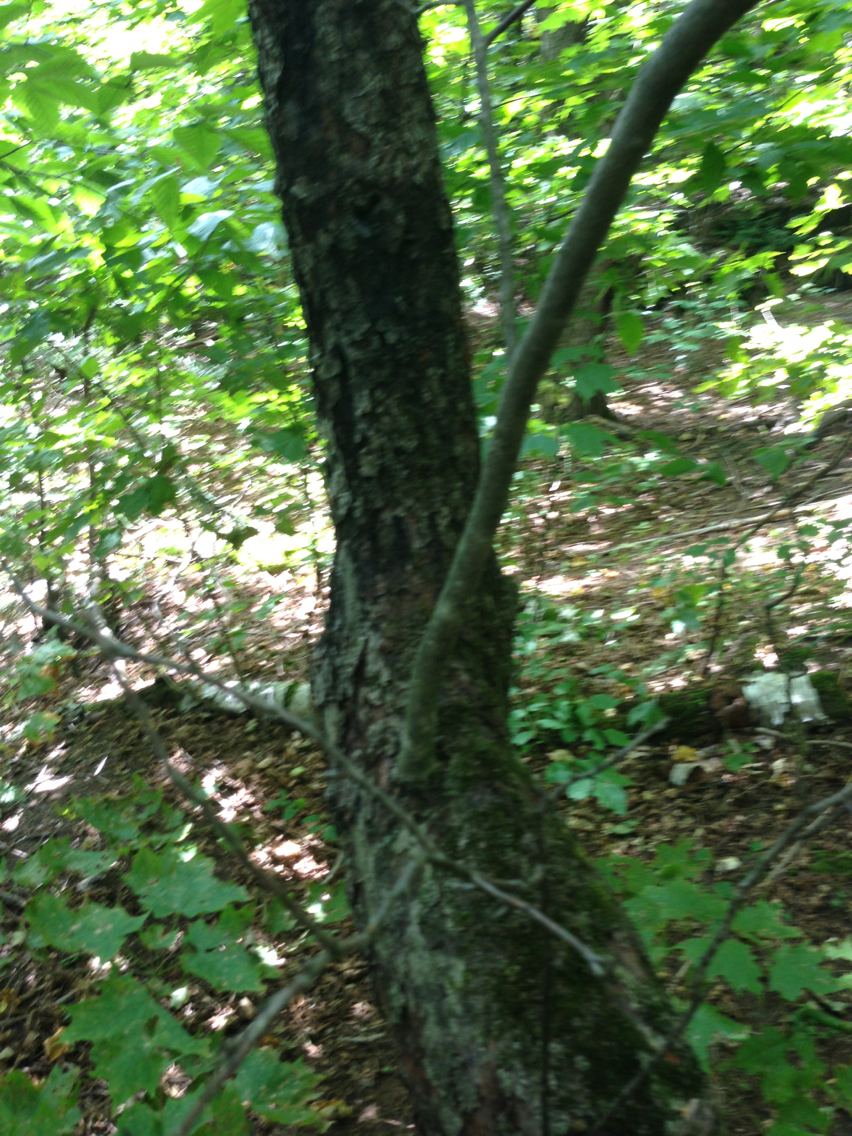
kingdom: Plantae
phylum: Tracheophyta
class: Magnoliopsida
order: Rosales
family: Rosaceae
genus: Malus
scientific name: Malus domestica
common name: Apple
